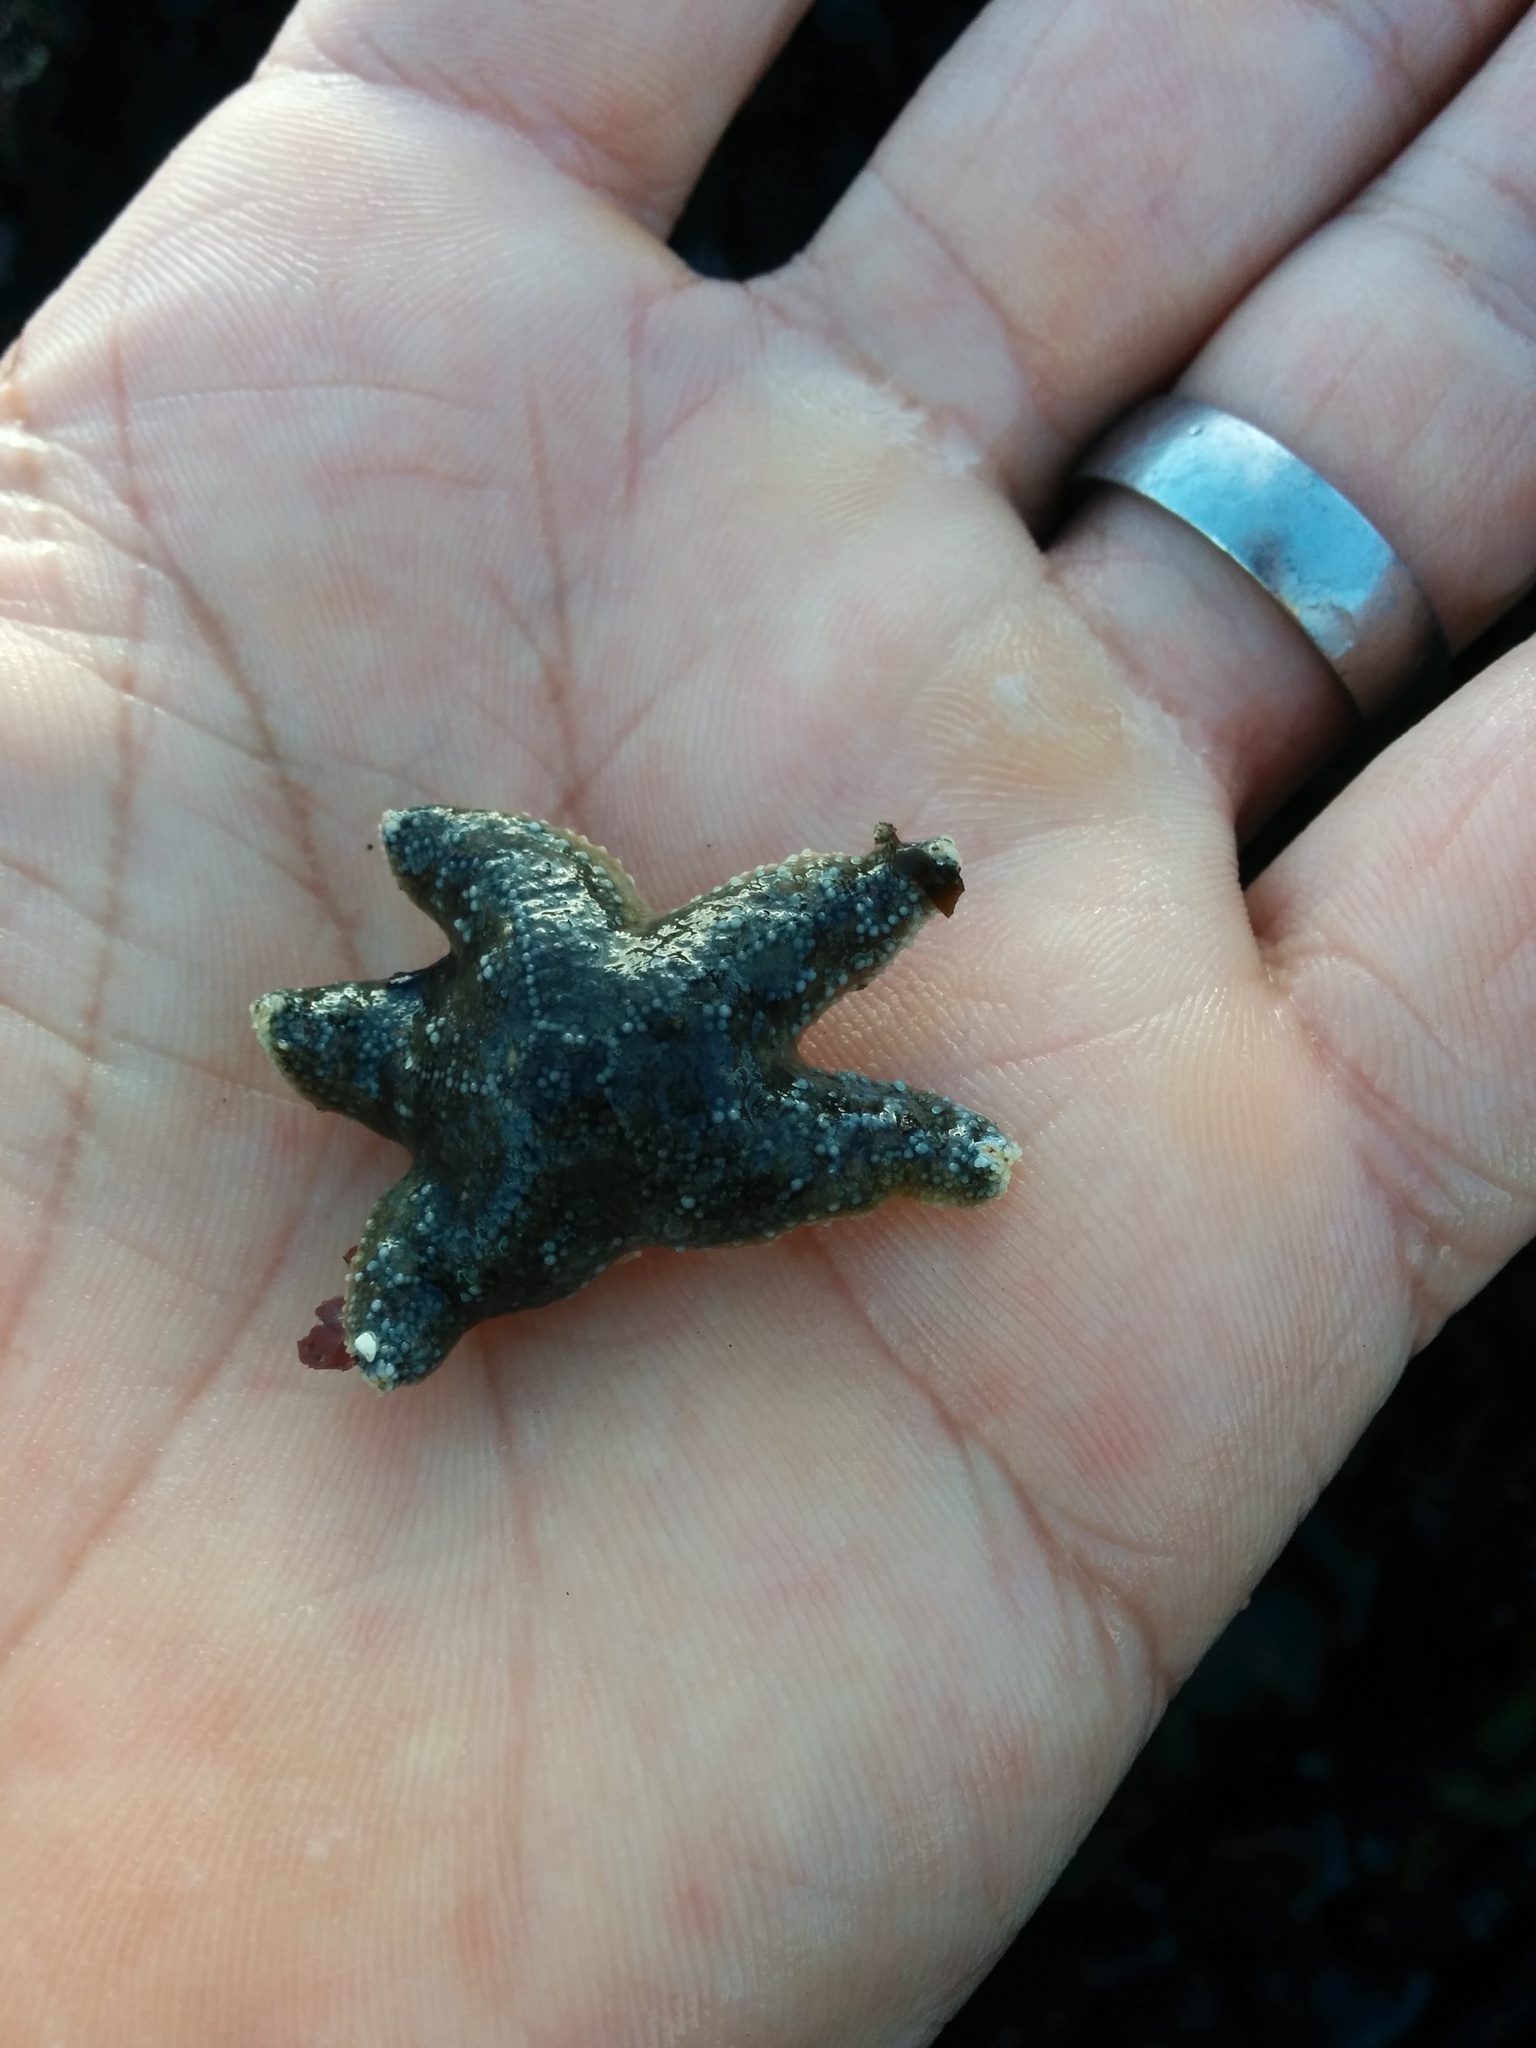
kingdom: Animalia
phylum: Echinodermata
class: Asteroidea
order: Forcipulatida
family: Asteriidae
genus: Pisaster
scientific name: Pisaster ochraceus
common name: Ochre stars
